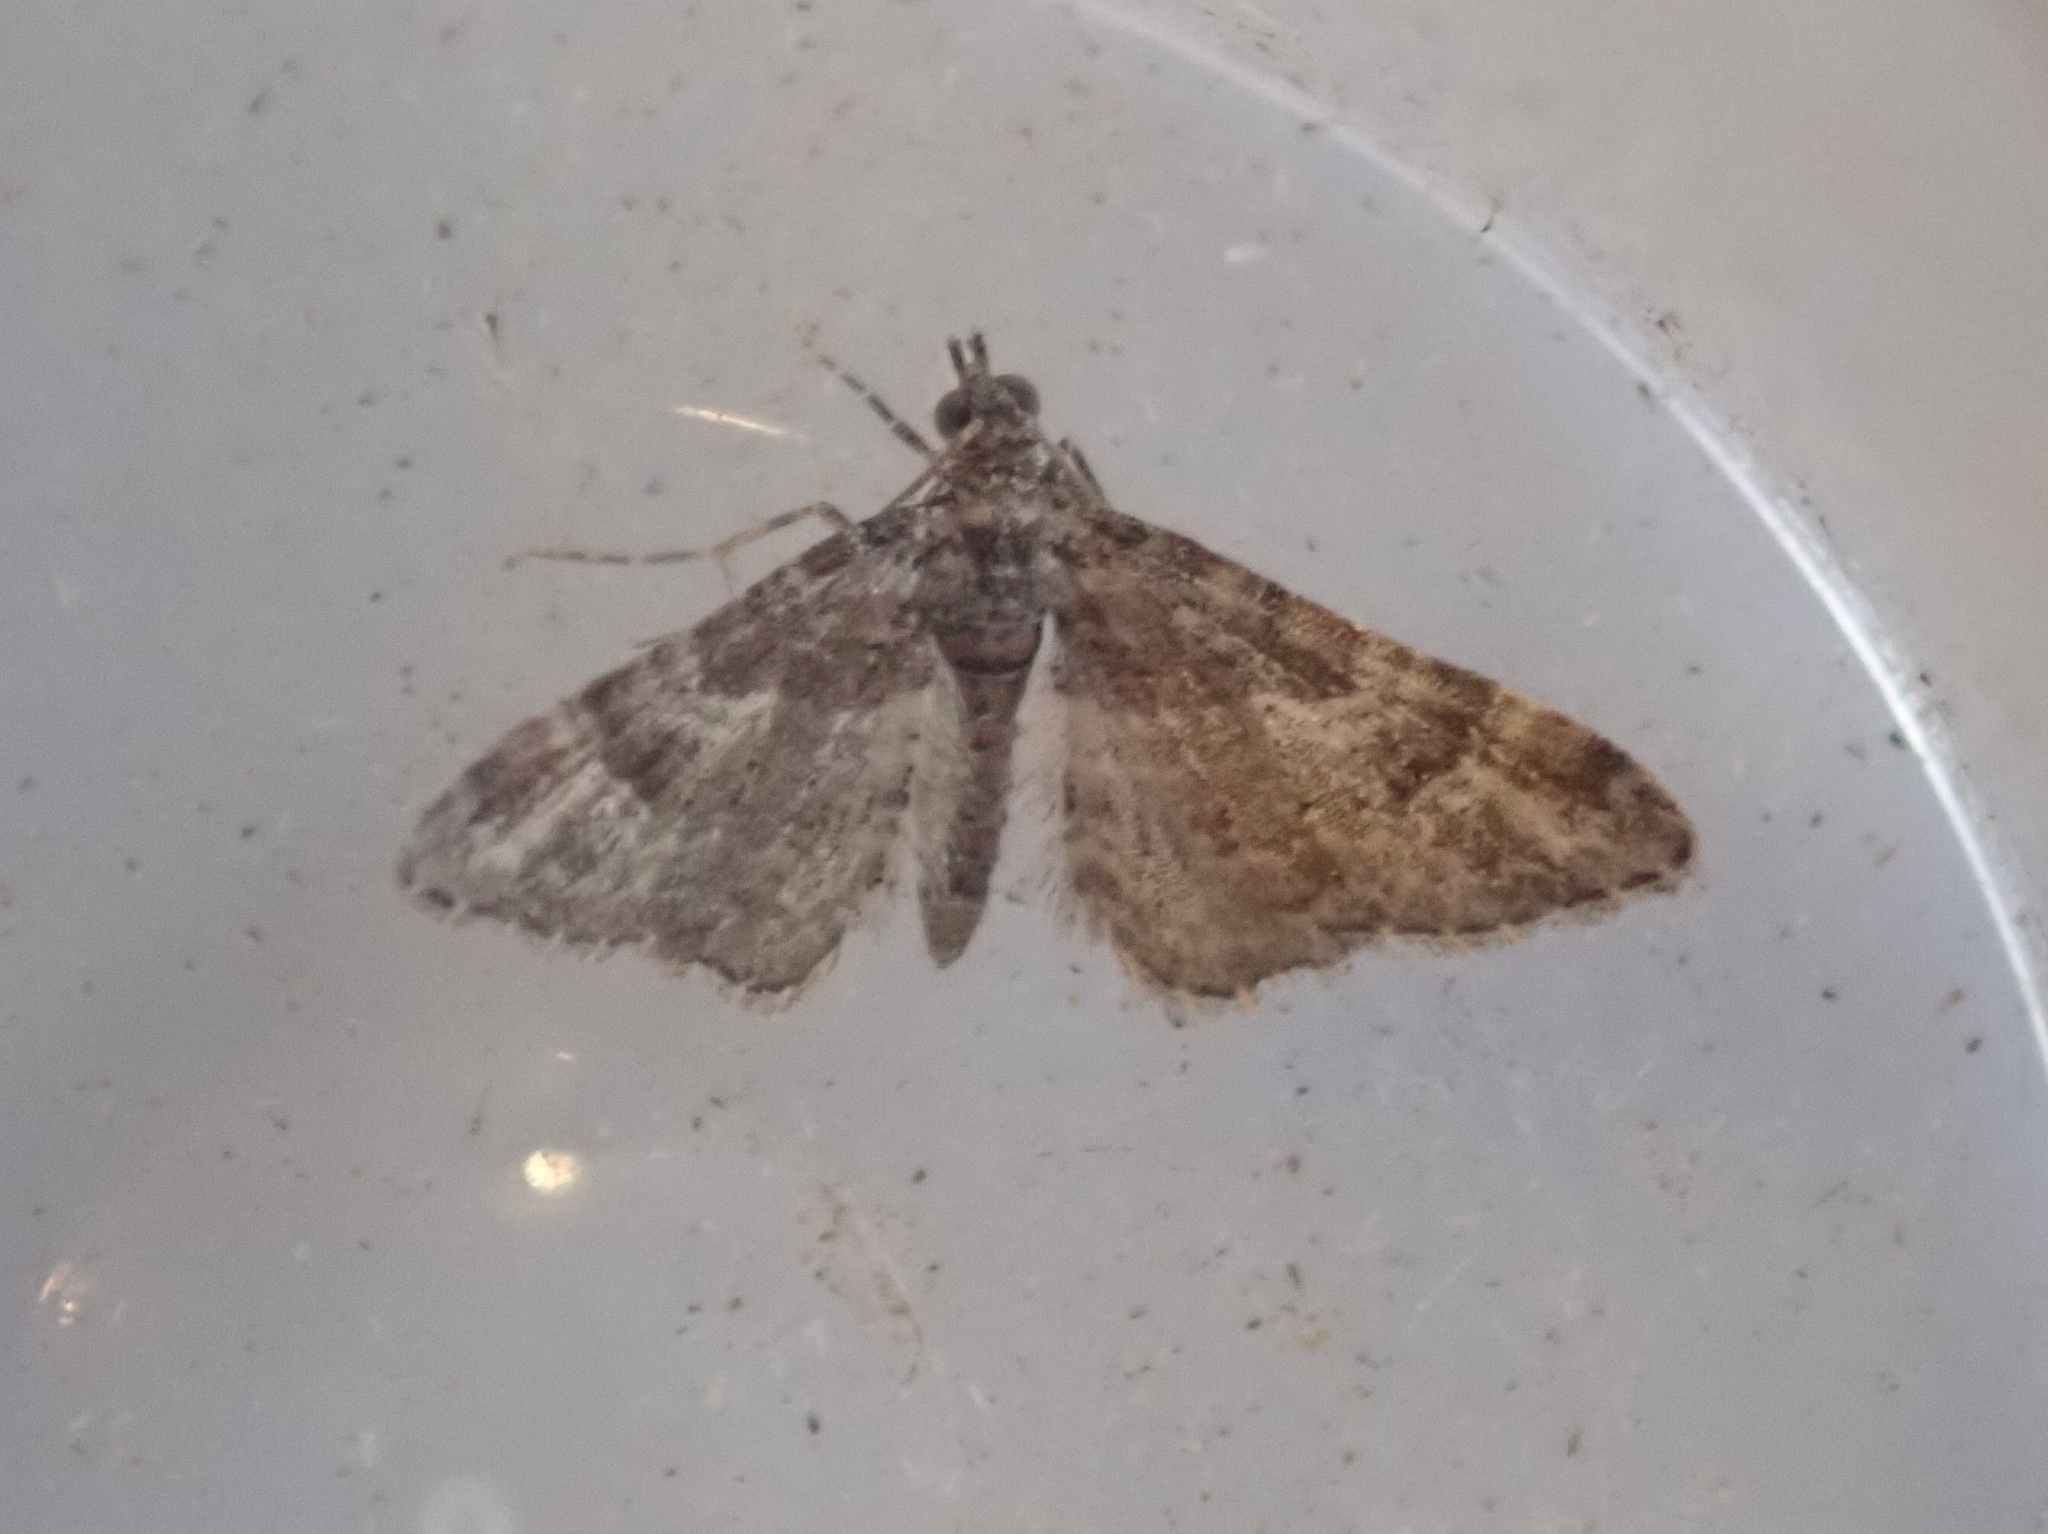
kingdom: Animalia
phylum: Arthropoda
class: Insecta
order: Lepidoptera
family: Geometridae
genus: Gymnoscelis
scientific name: Gymnoscelis rufifasciata
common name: Double-striped pug
